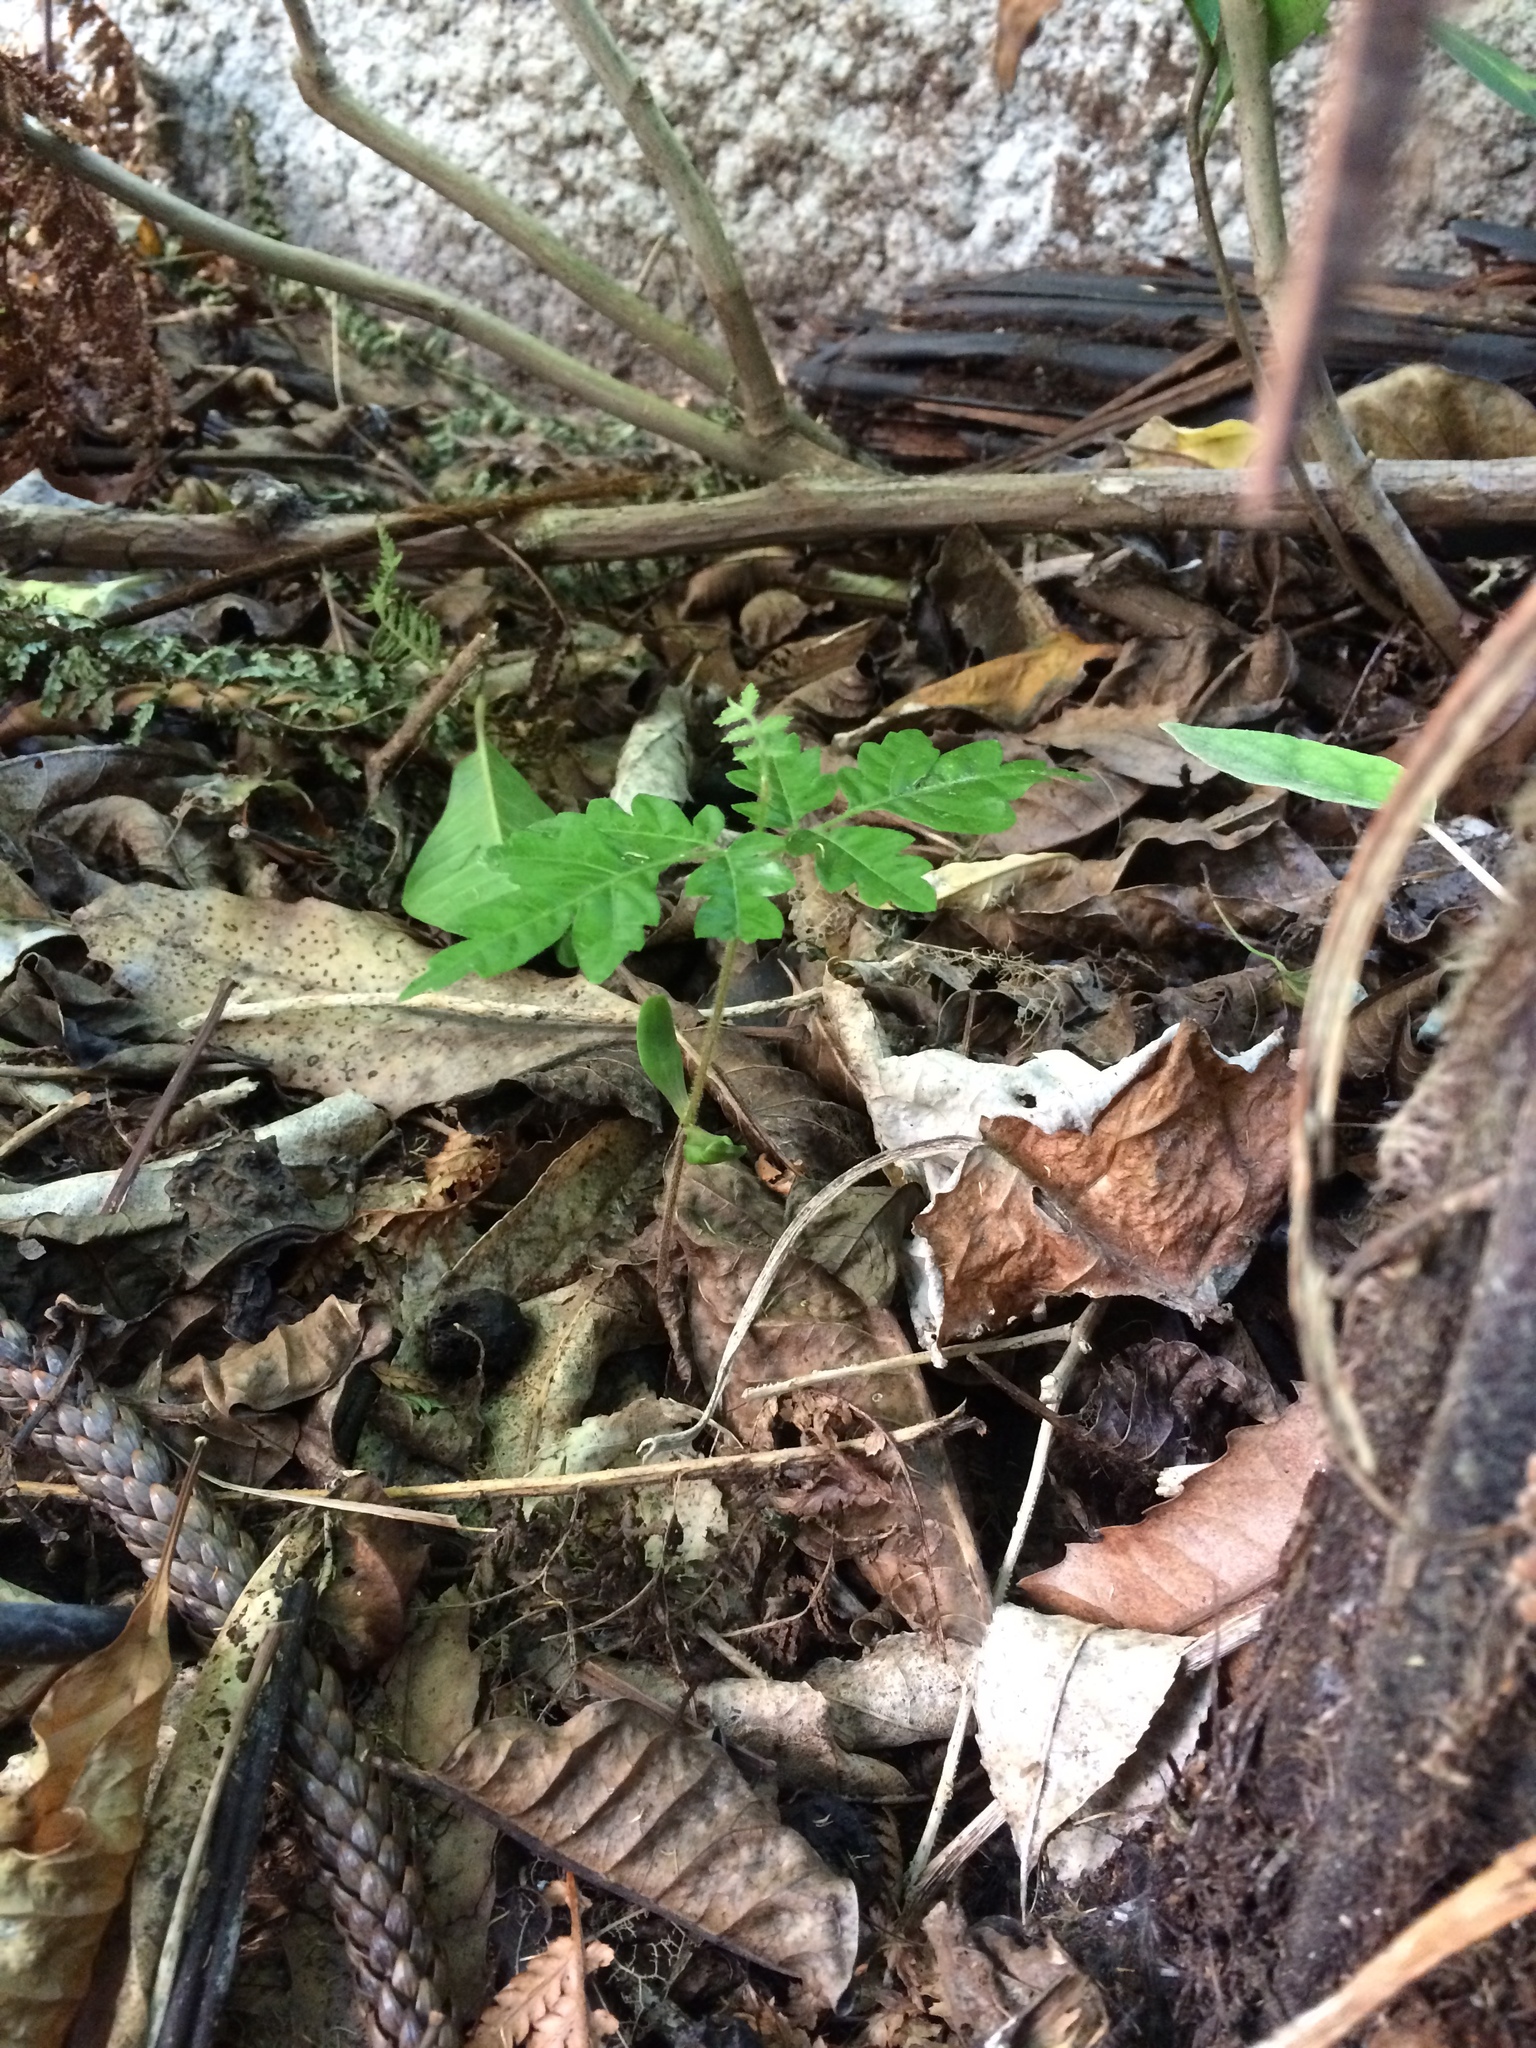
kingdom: Plantae
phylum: Tracheophyta
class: Magnoliopsida
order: Sapindales
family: Sapindaceae
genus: Alectryon
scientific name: Alectryon excelsus
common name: Three kings titoki
